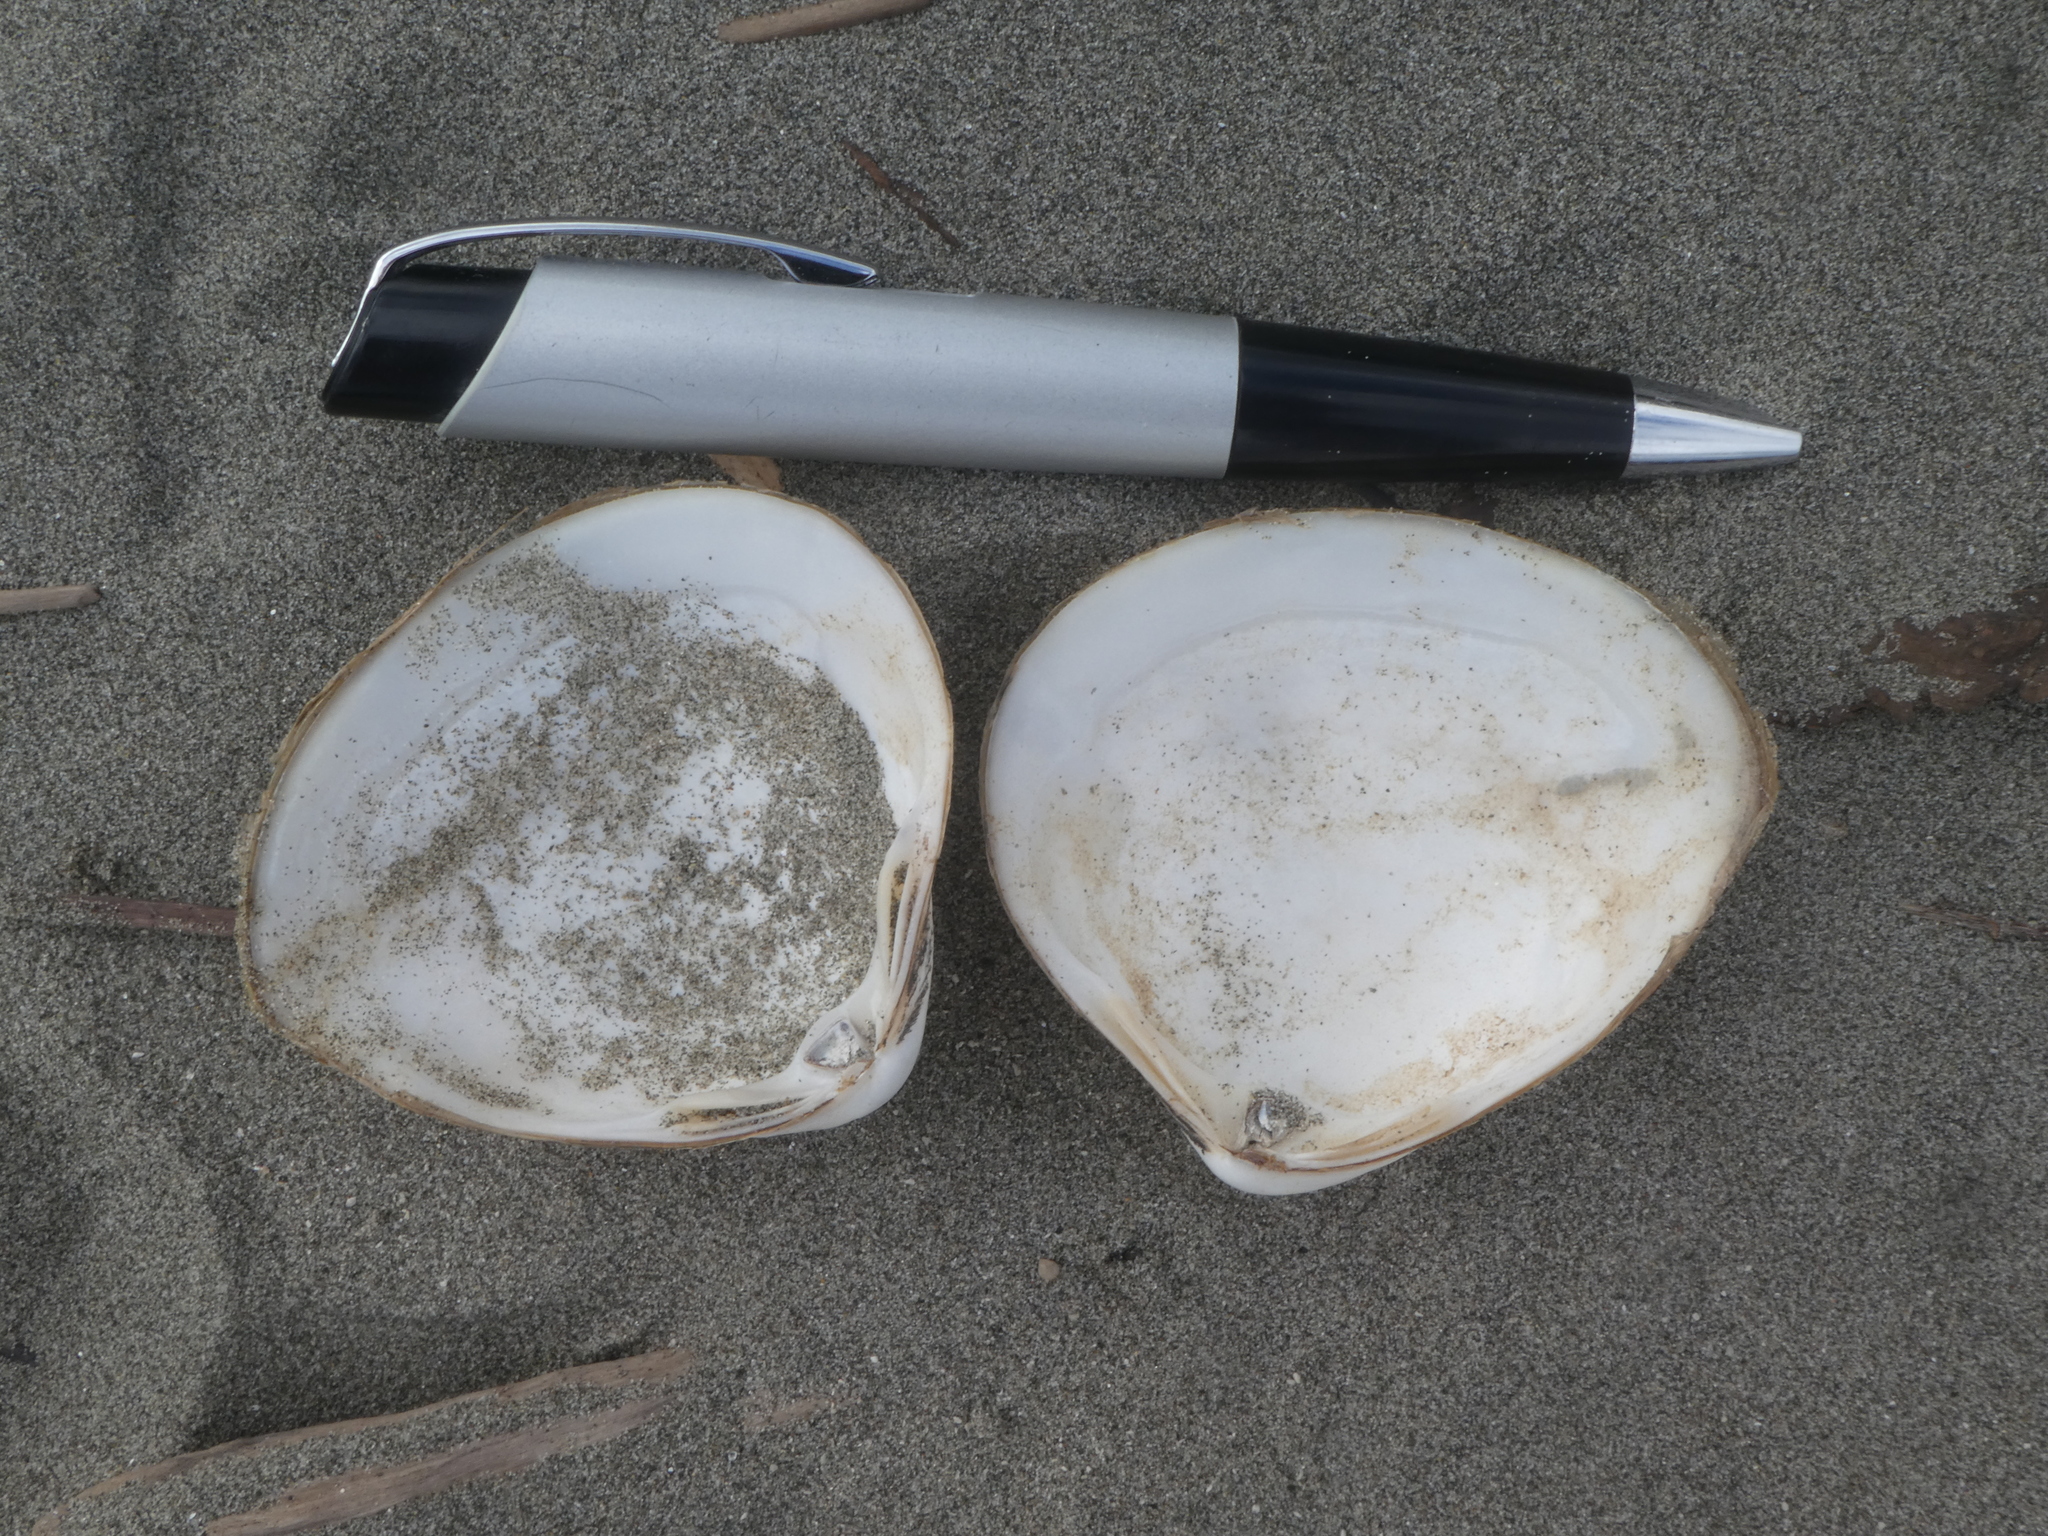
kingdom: Animalia
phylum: Mollusca
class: Bivalvia
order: Venerida
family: Mactridae
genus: Spisula
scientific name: Spisula discors
